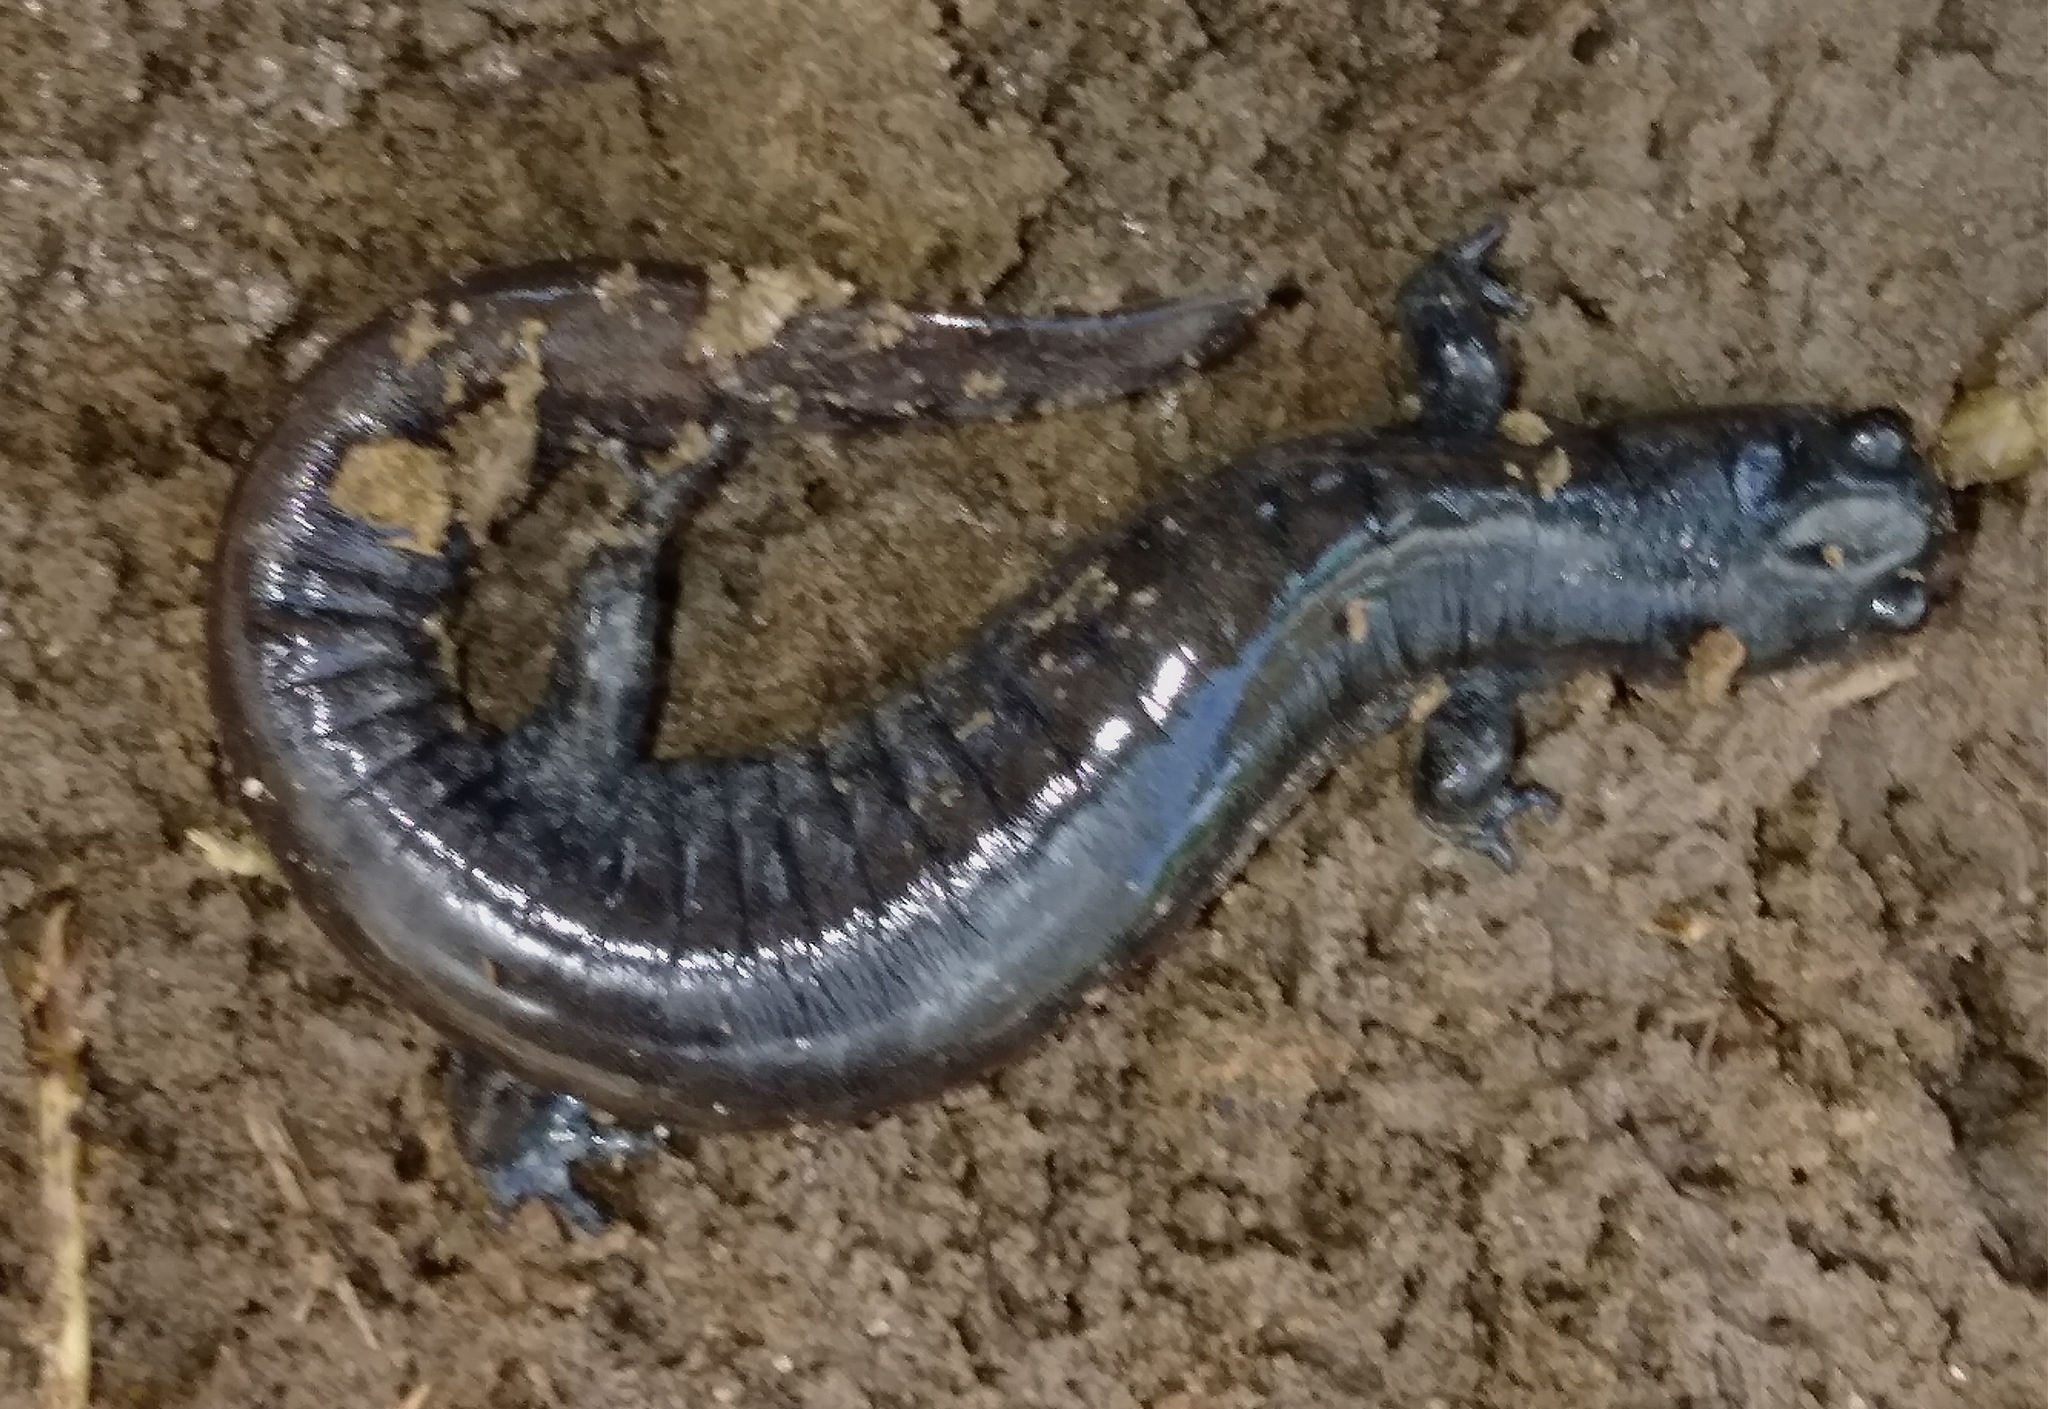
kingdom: Animalia
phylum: Chordata
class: Amphibia
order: Caudata
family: Ambystomatidae
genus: Ambystoma
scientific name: Ambystoma texanum
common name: Small-mouth salamander
